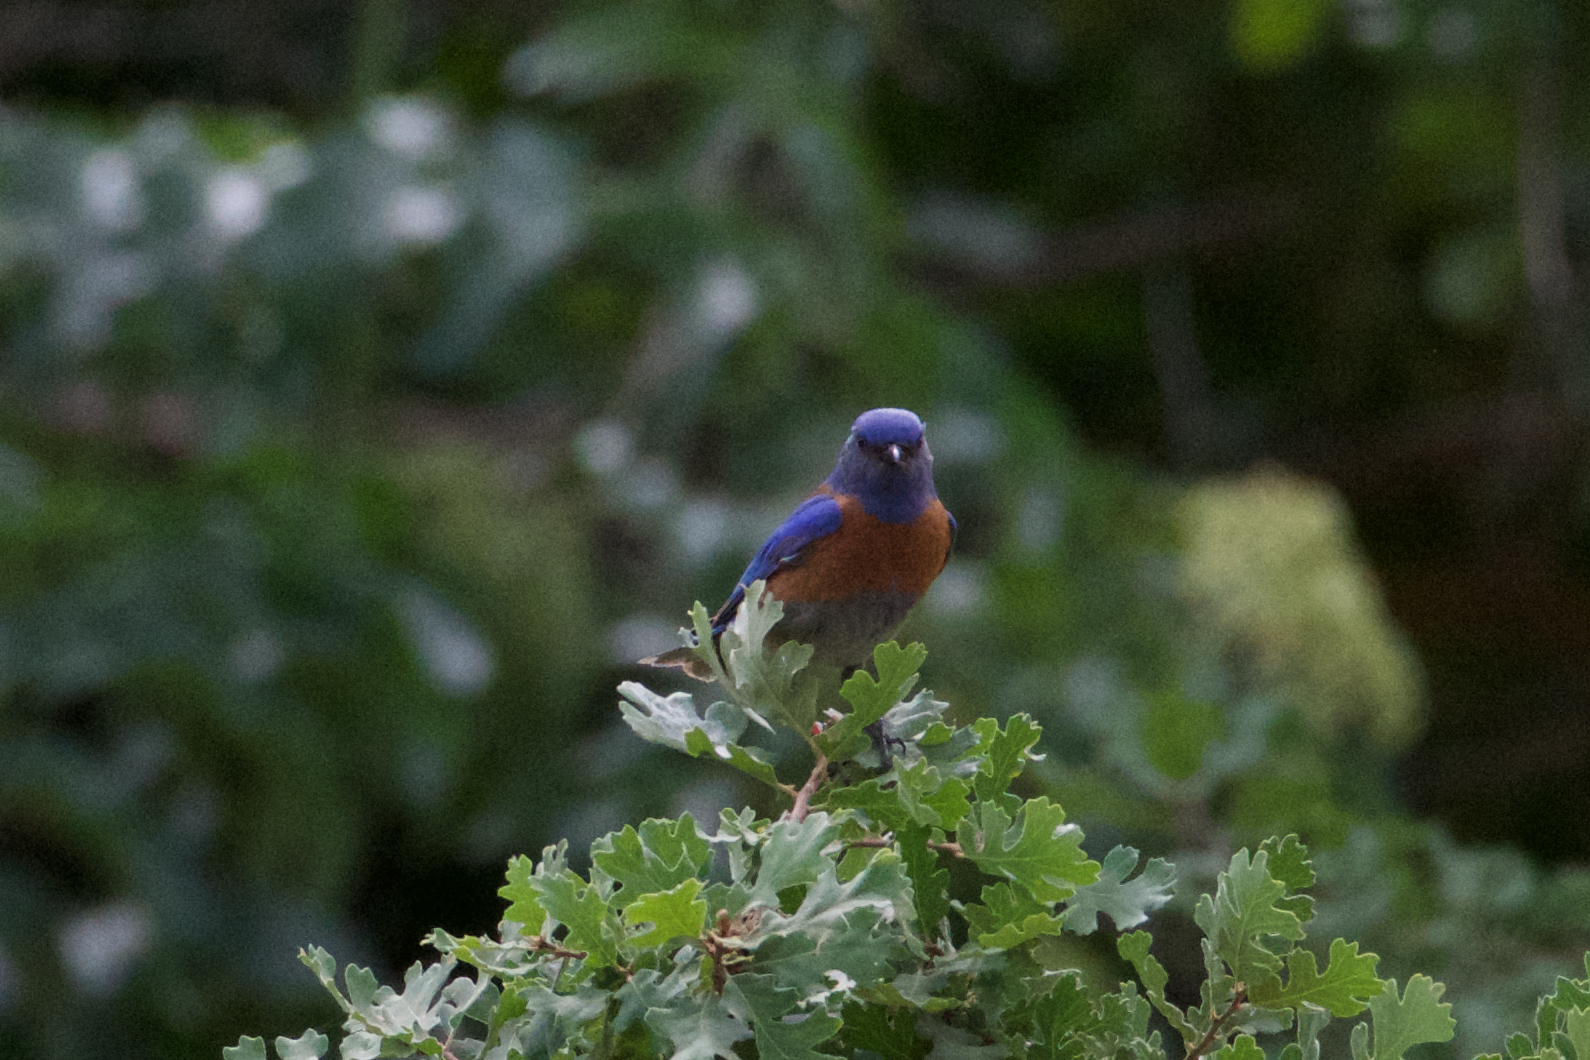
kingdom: Animalia
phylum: Chordata
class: Aves
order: Passeriformes
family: Turdidae
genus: Sialia
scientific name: Sialia mexicana
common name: Western bluebird
